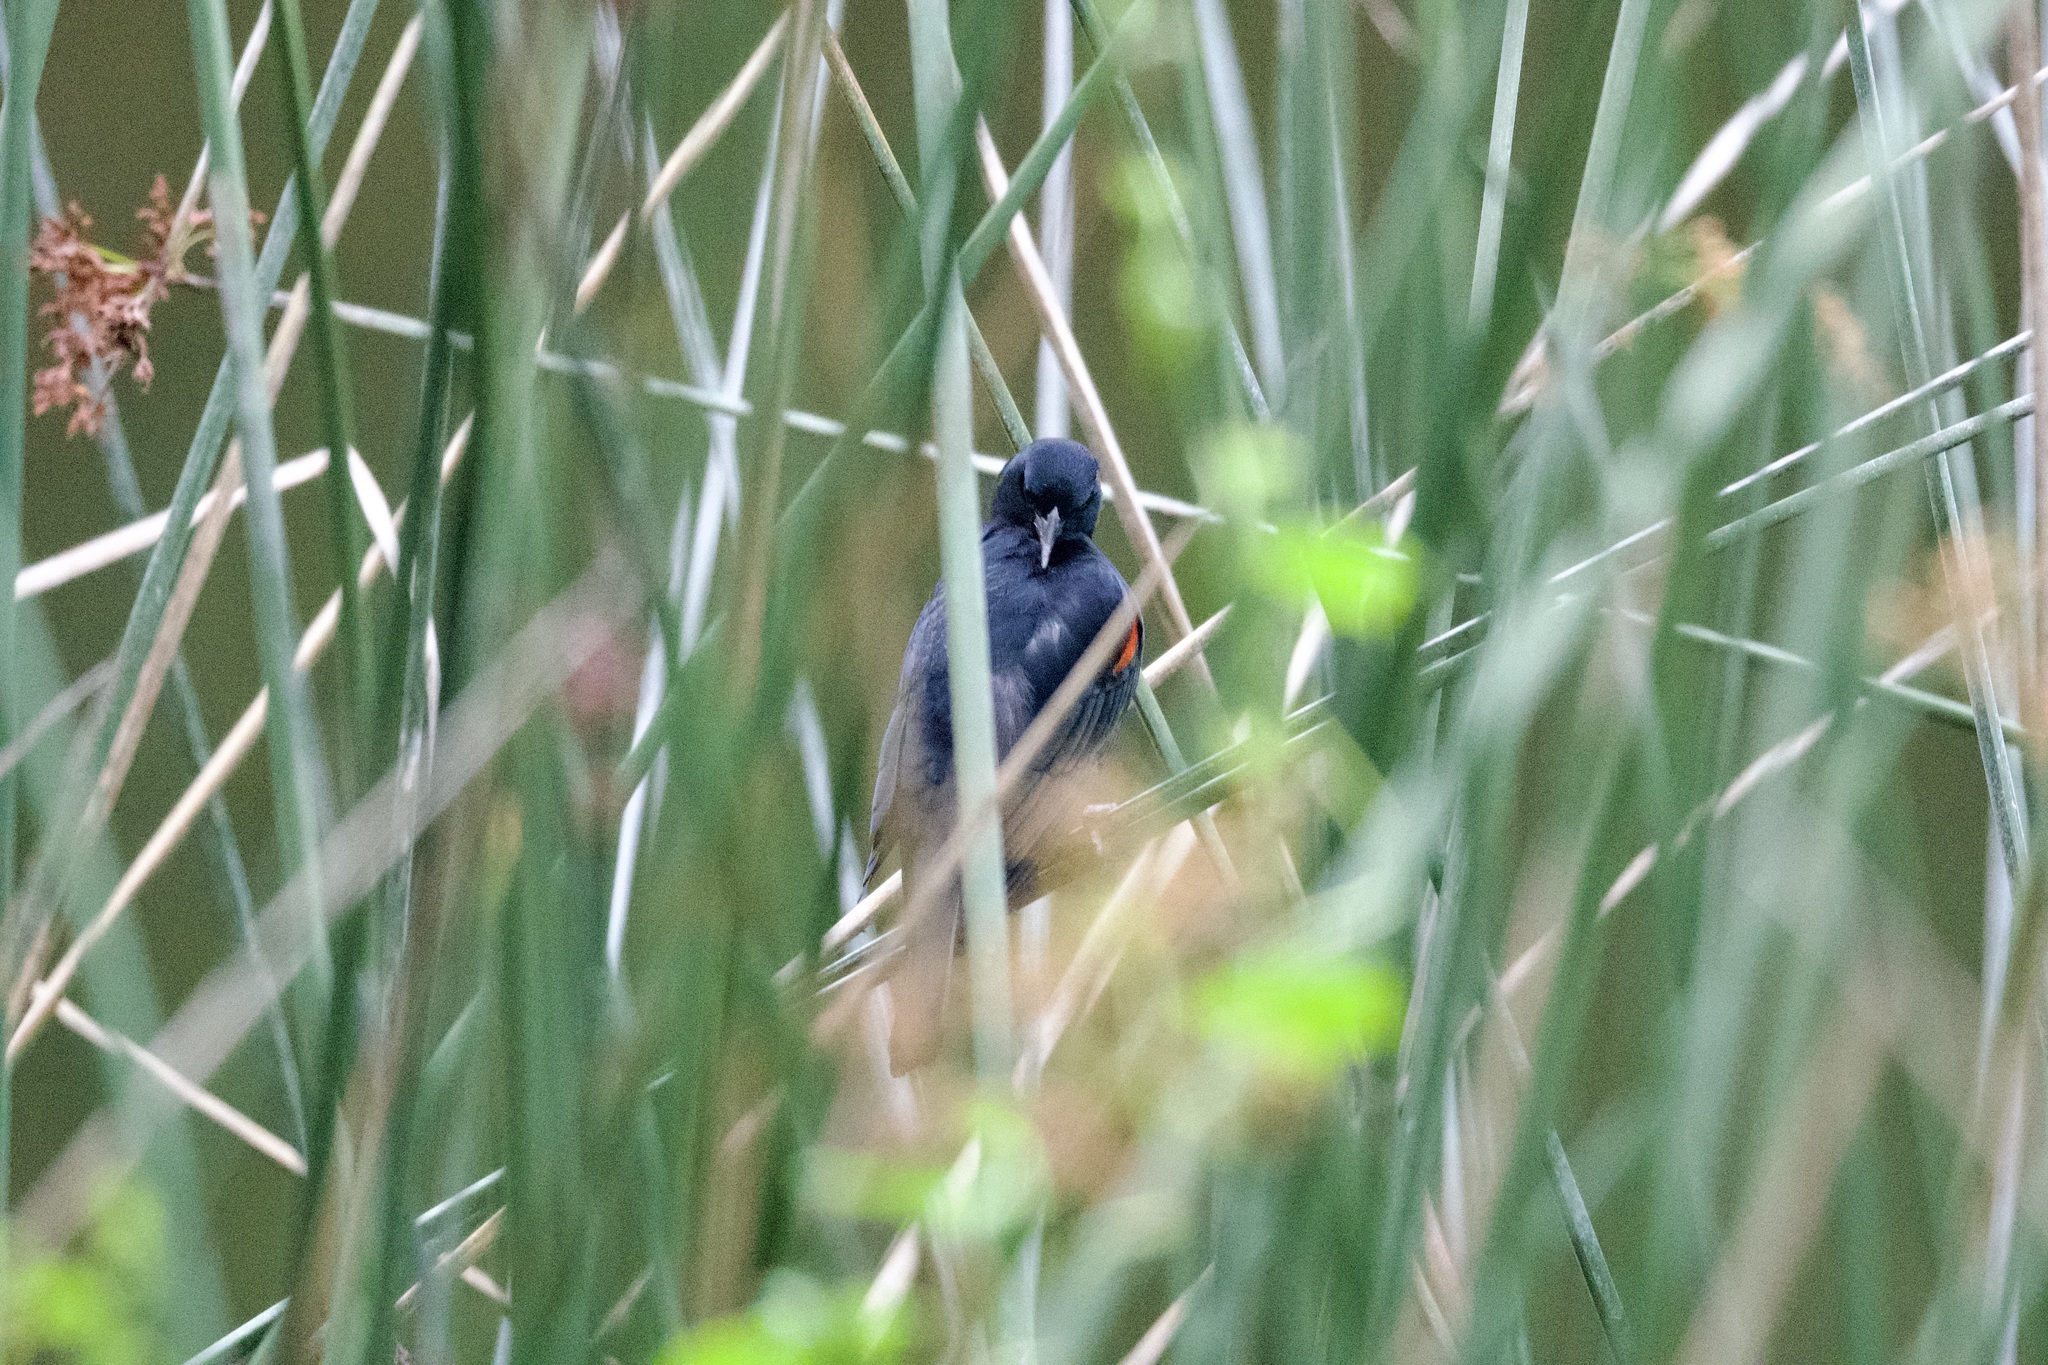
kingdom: Animalia
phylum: Chordata
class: Aves
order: Passeriformes
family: Icteridae
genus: Agelaius
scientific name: Agelaius phoeniceus
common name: Red-winged blackbird
